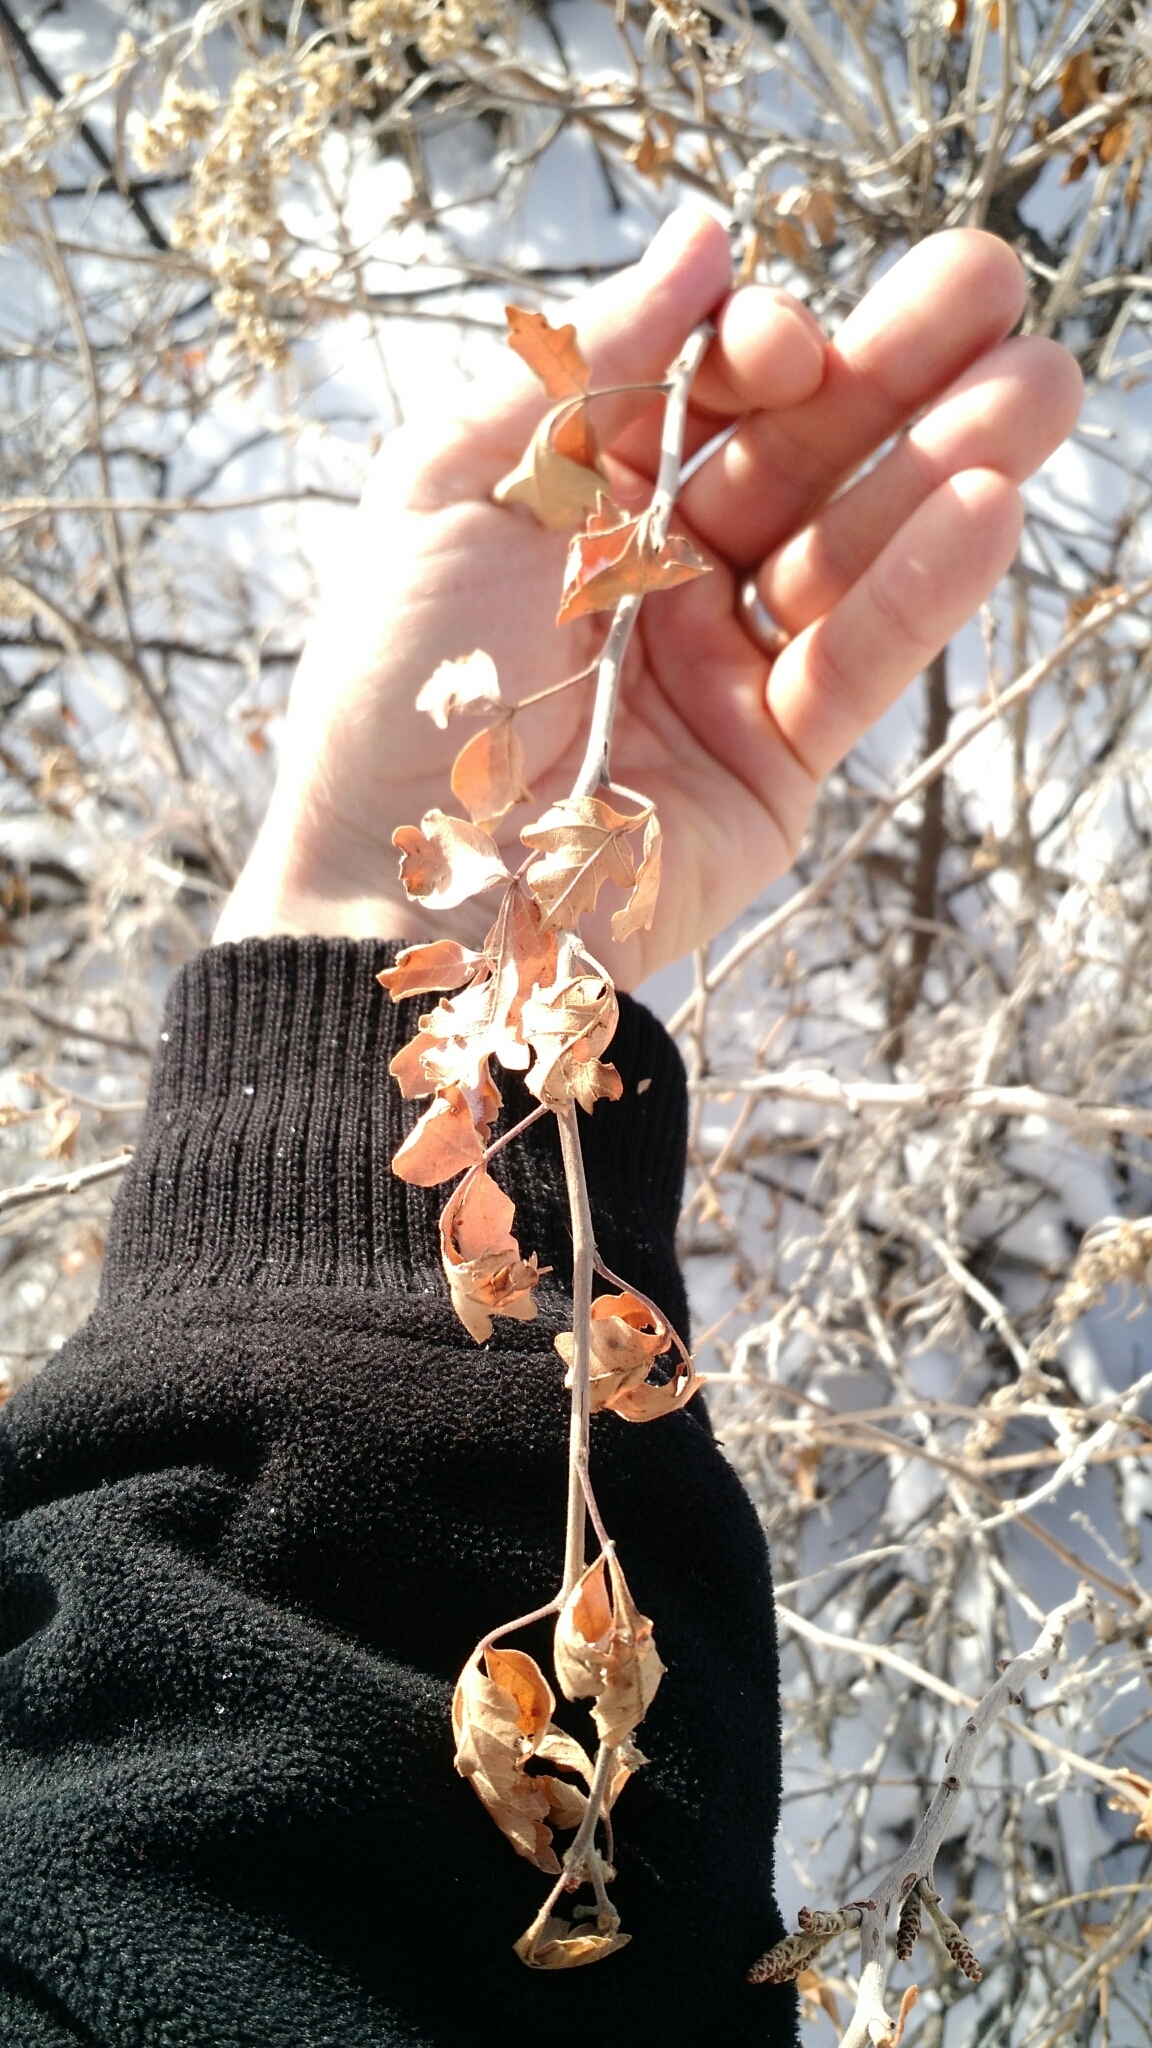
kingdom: Plantae
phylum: Tracheophyta
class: Magnoliopsida
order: Sapindales
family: Anacardiaceae
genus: Rhus
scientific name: Rhus aromatica
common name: Aromatic sumac
